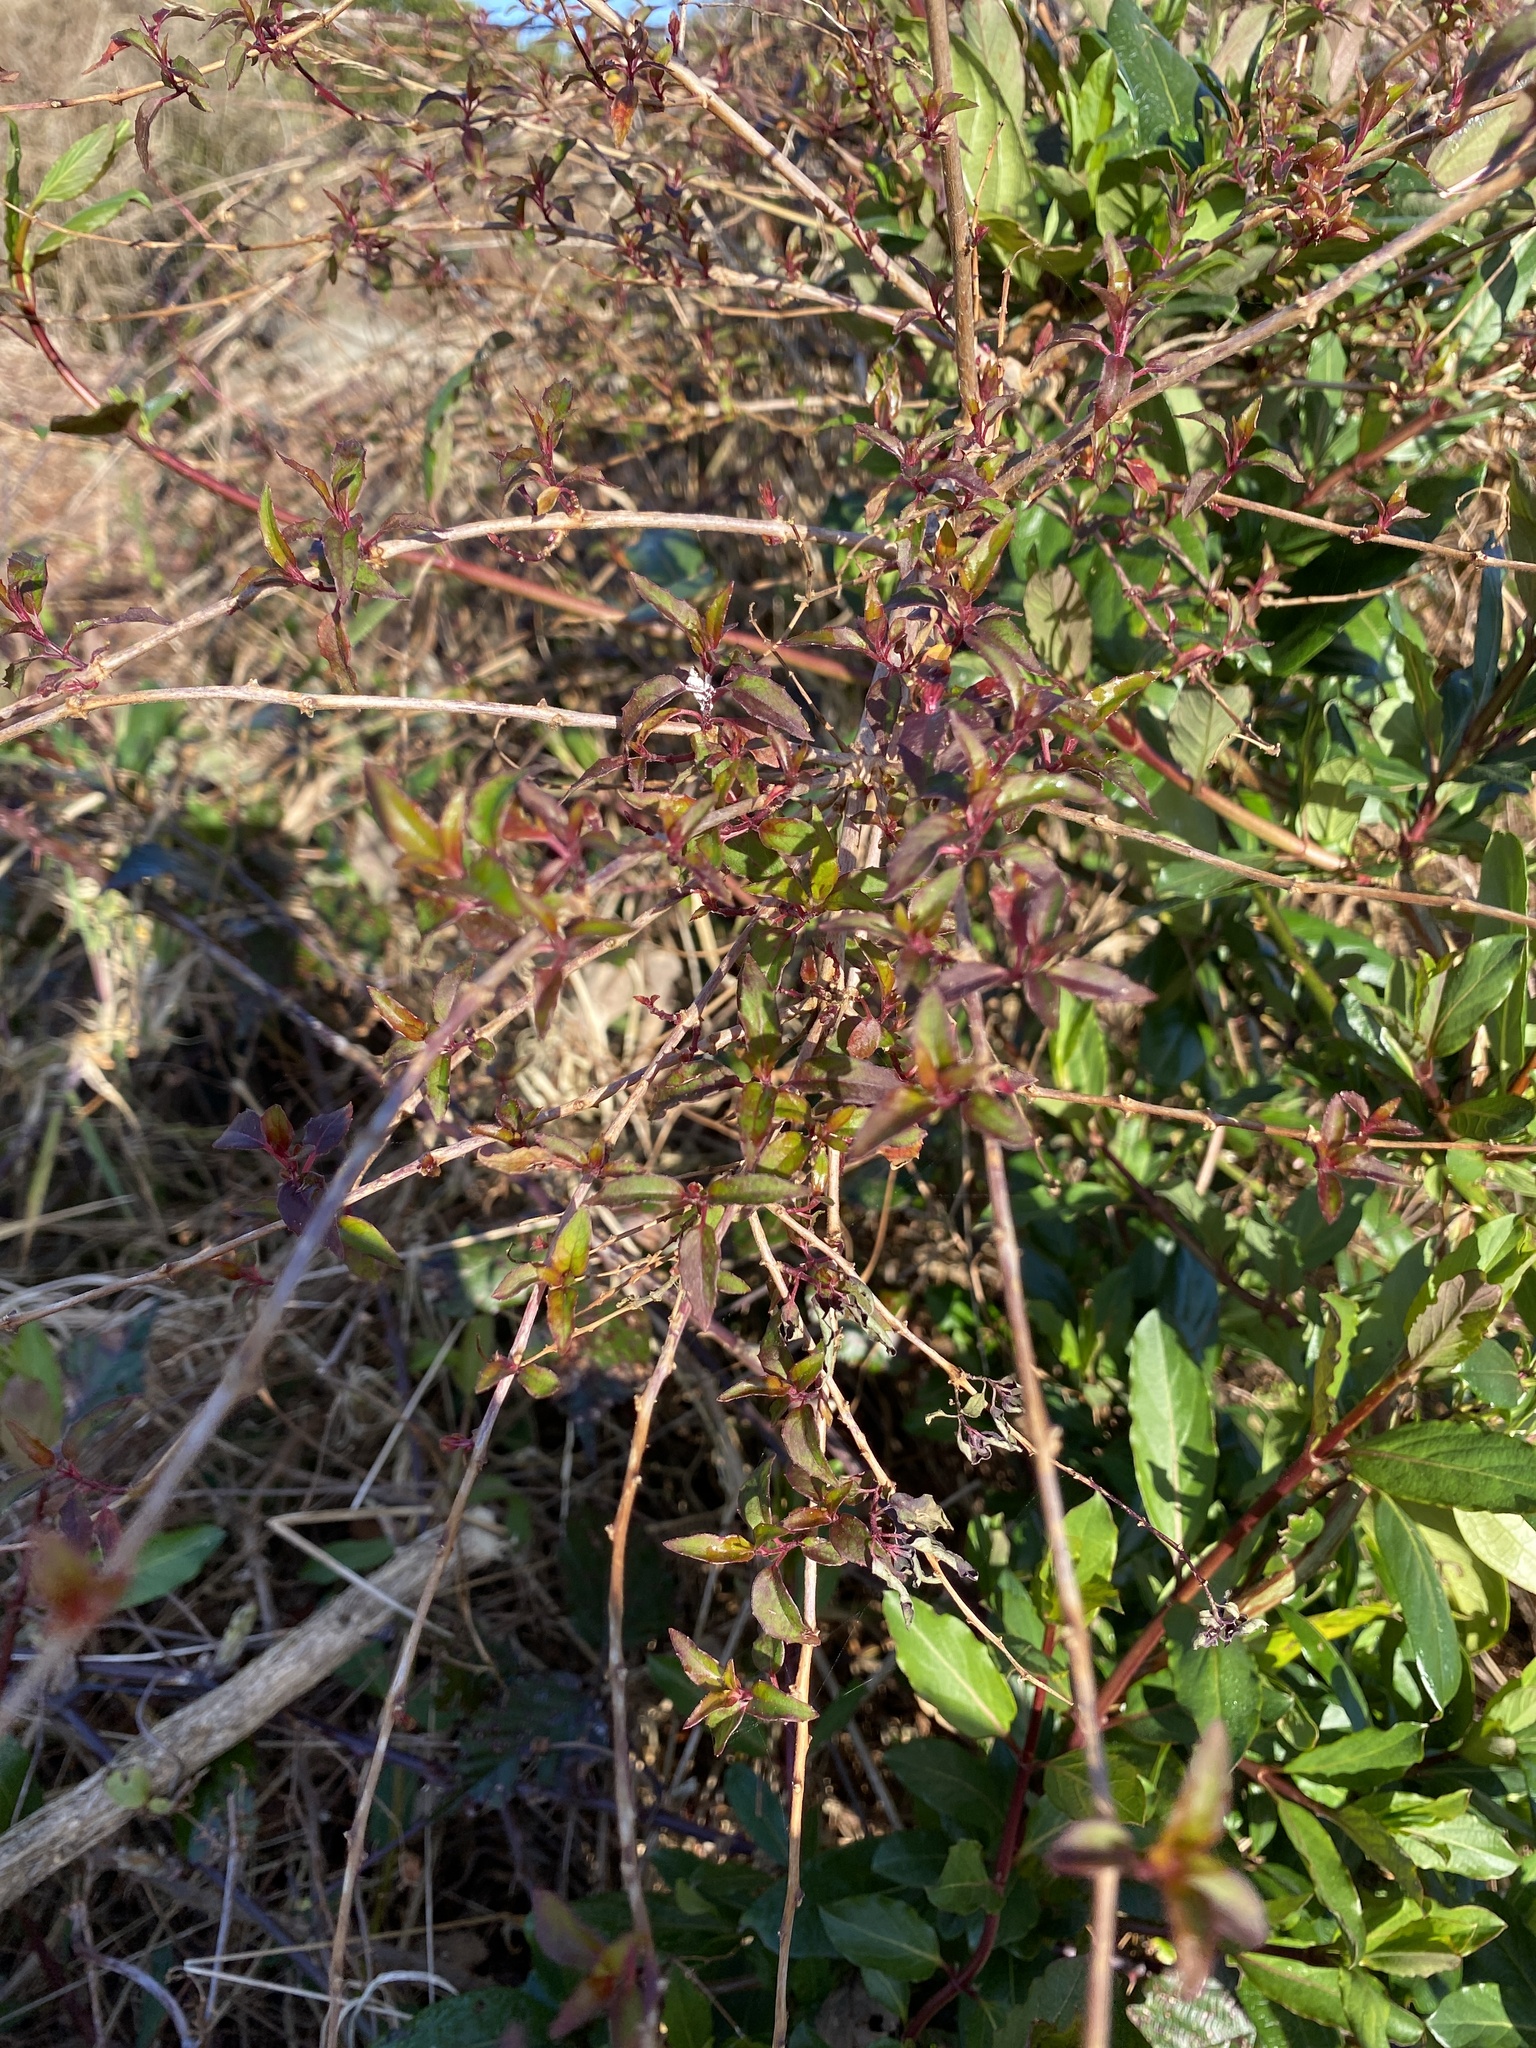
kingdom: Plantae
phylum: Tracheophyta
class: Magnoliopsida
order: Myrtales
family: Onagraceae
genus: Fuchsia
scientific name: Fuchsia magellanica
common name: Hardy fuchsia
